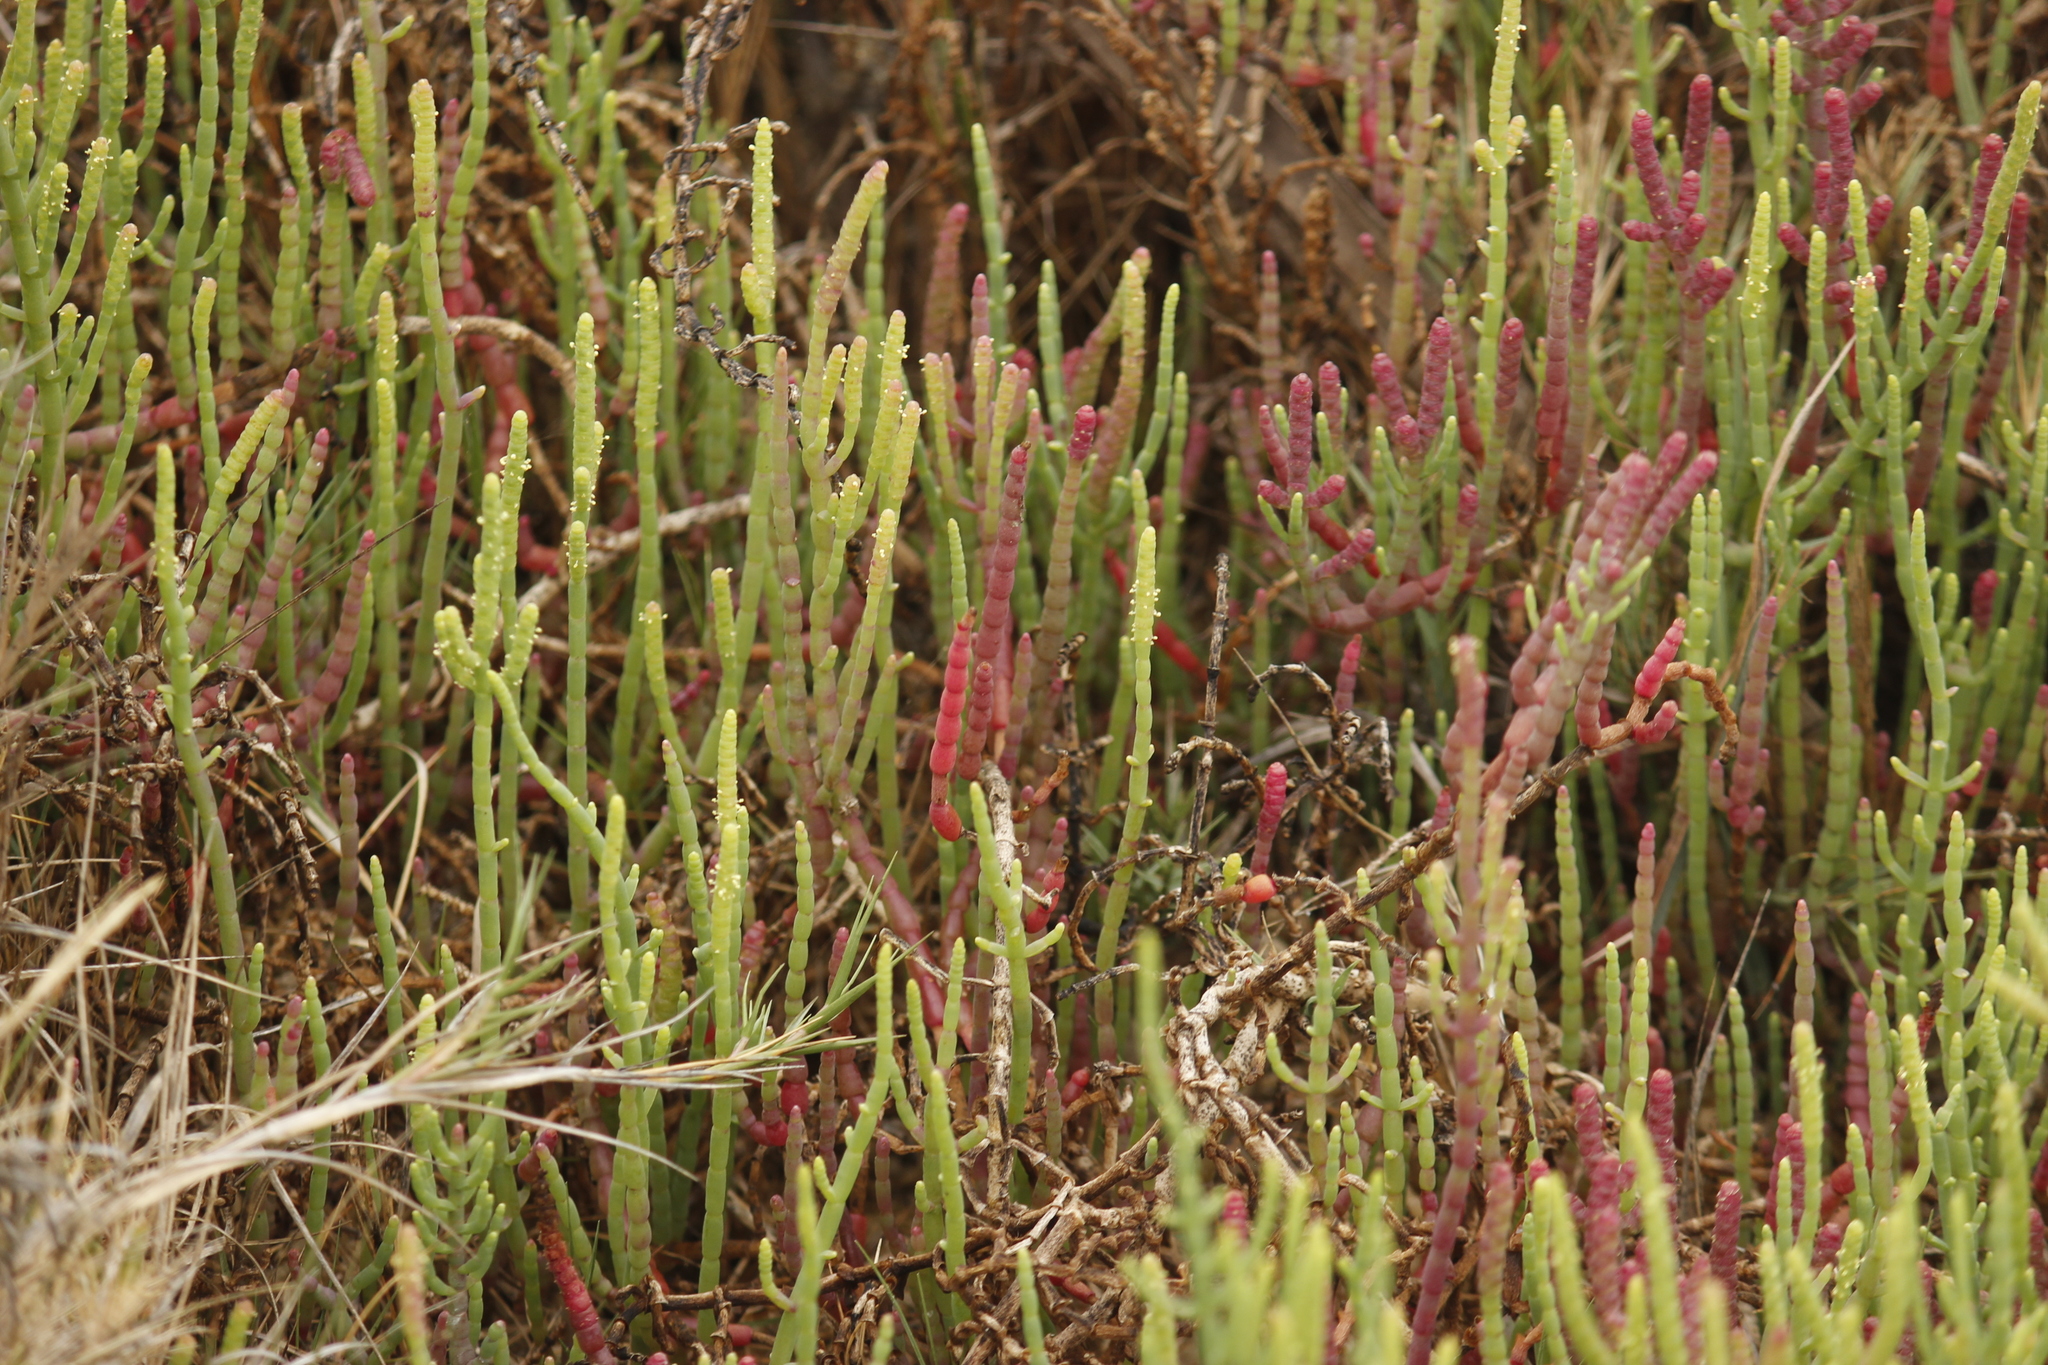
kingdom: Plantae
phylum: Tracheophyta
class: Magnoliopsida
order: Caryophyllales
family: Amaranthaceae
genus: Salicornia
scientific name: Salicornia neei
